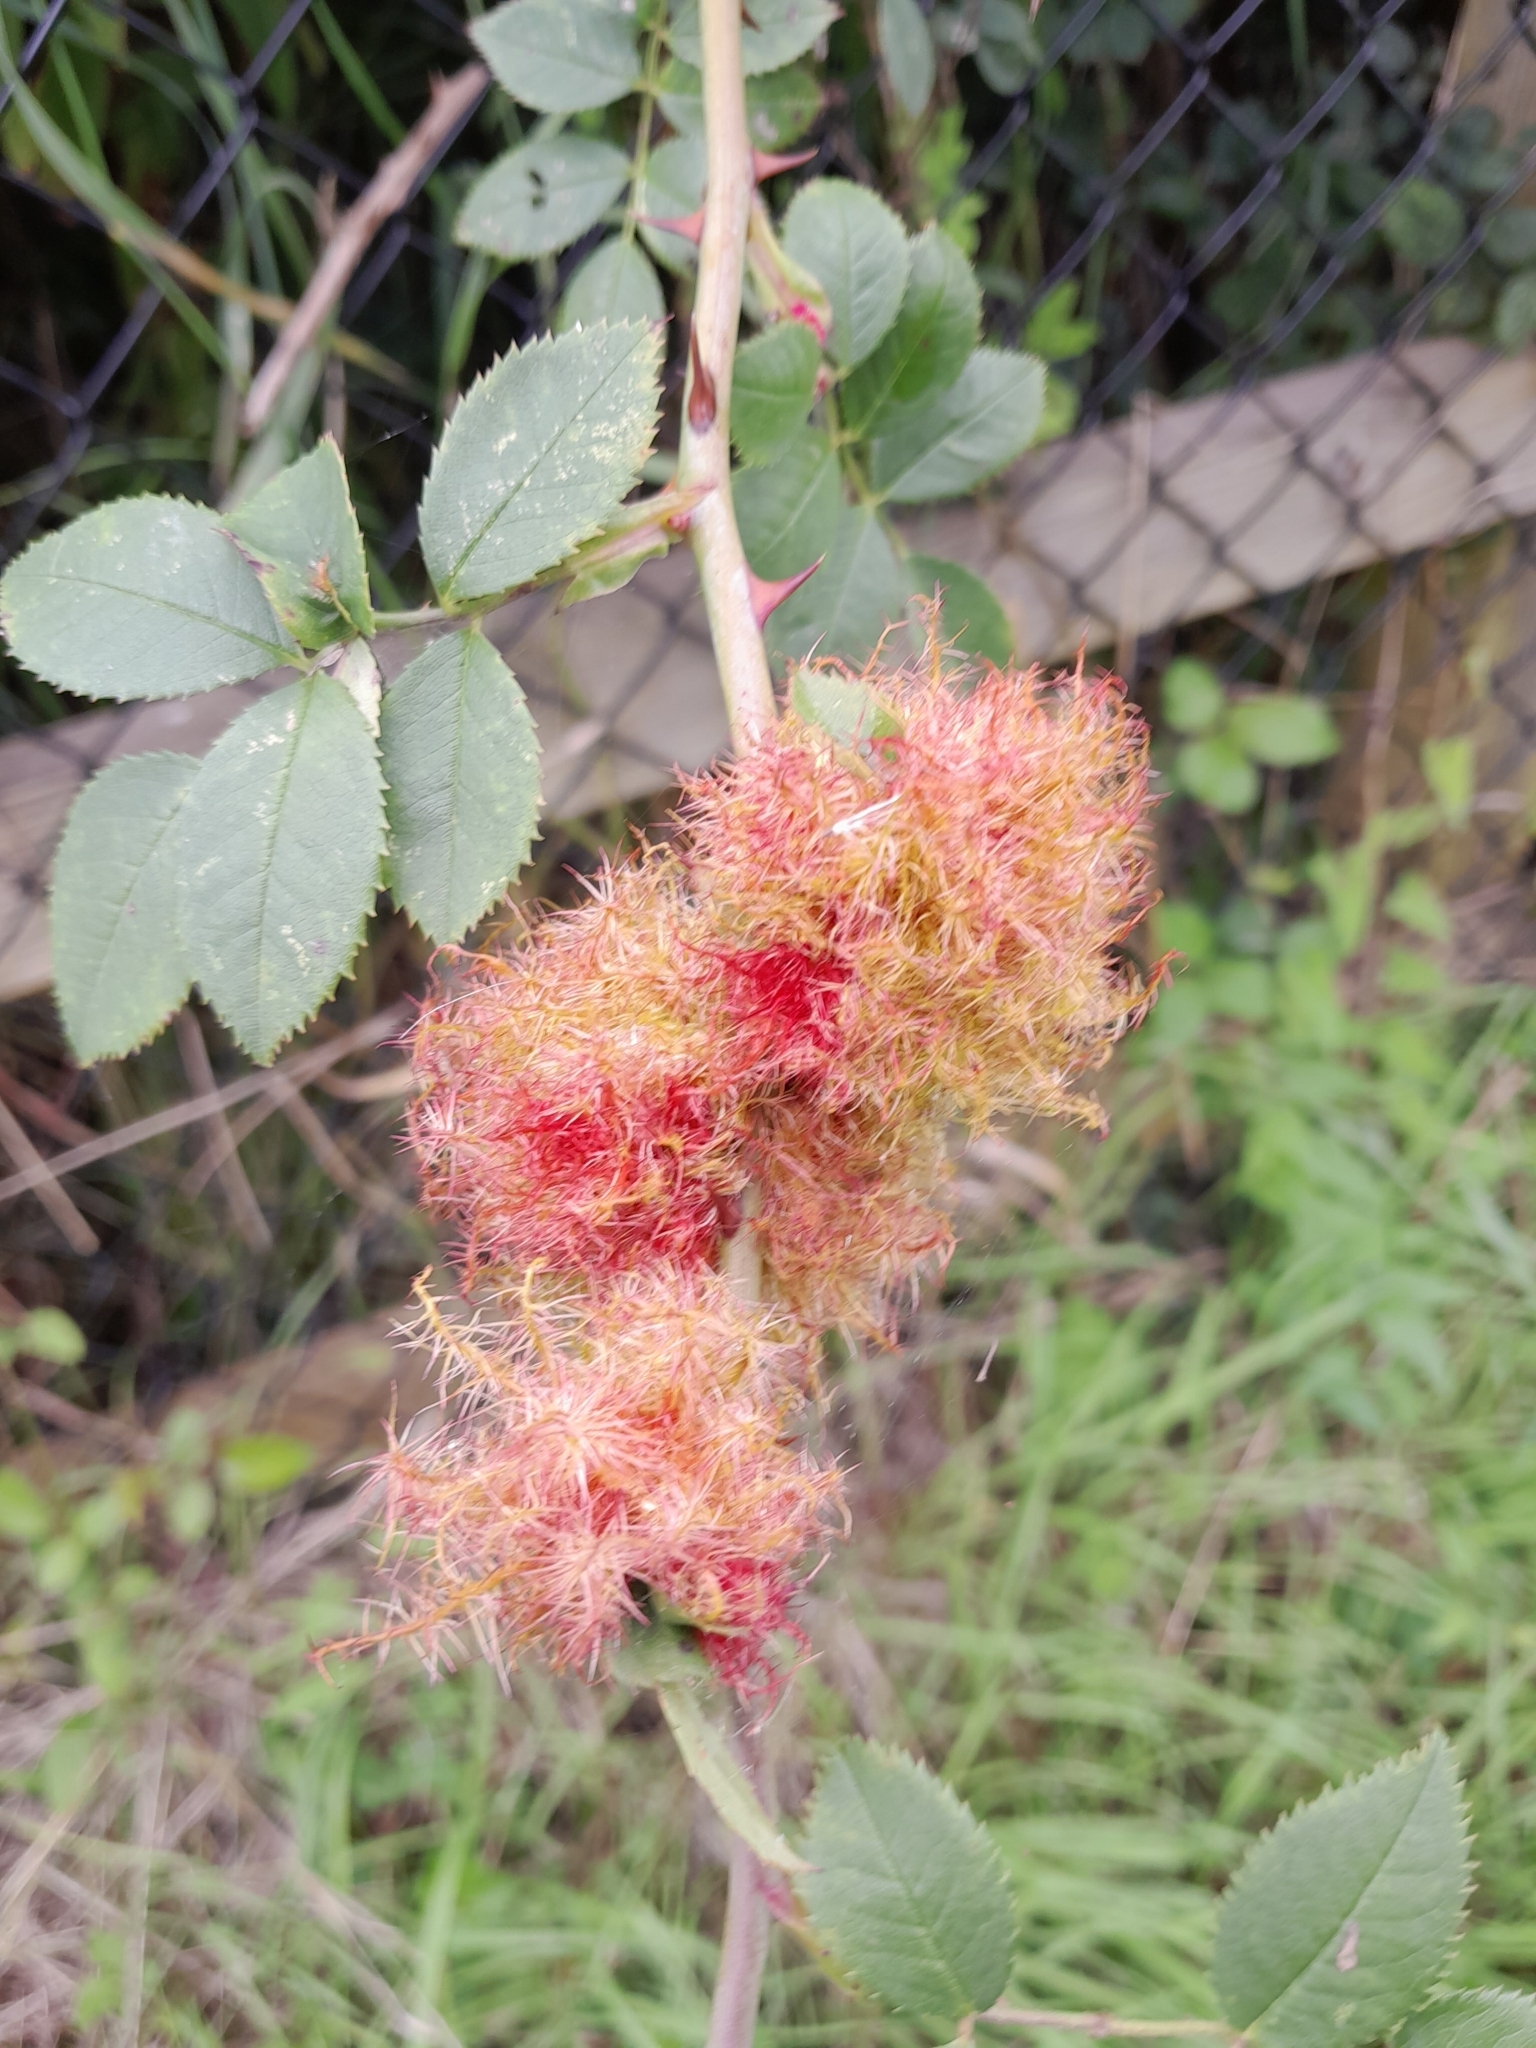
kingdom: Animalia
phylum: Arthropoda
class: Insecta
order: Hymenoptera
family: Cynipidae
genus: Diplolepis
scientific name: Diplolepis rosae
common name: Bedeguar gall
